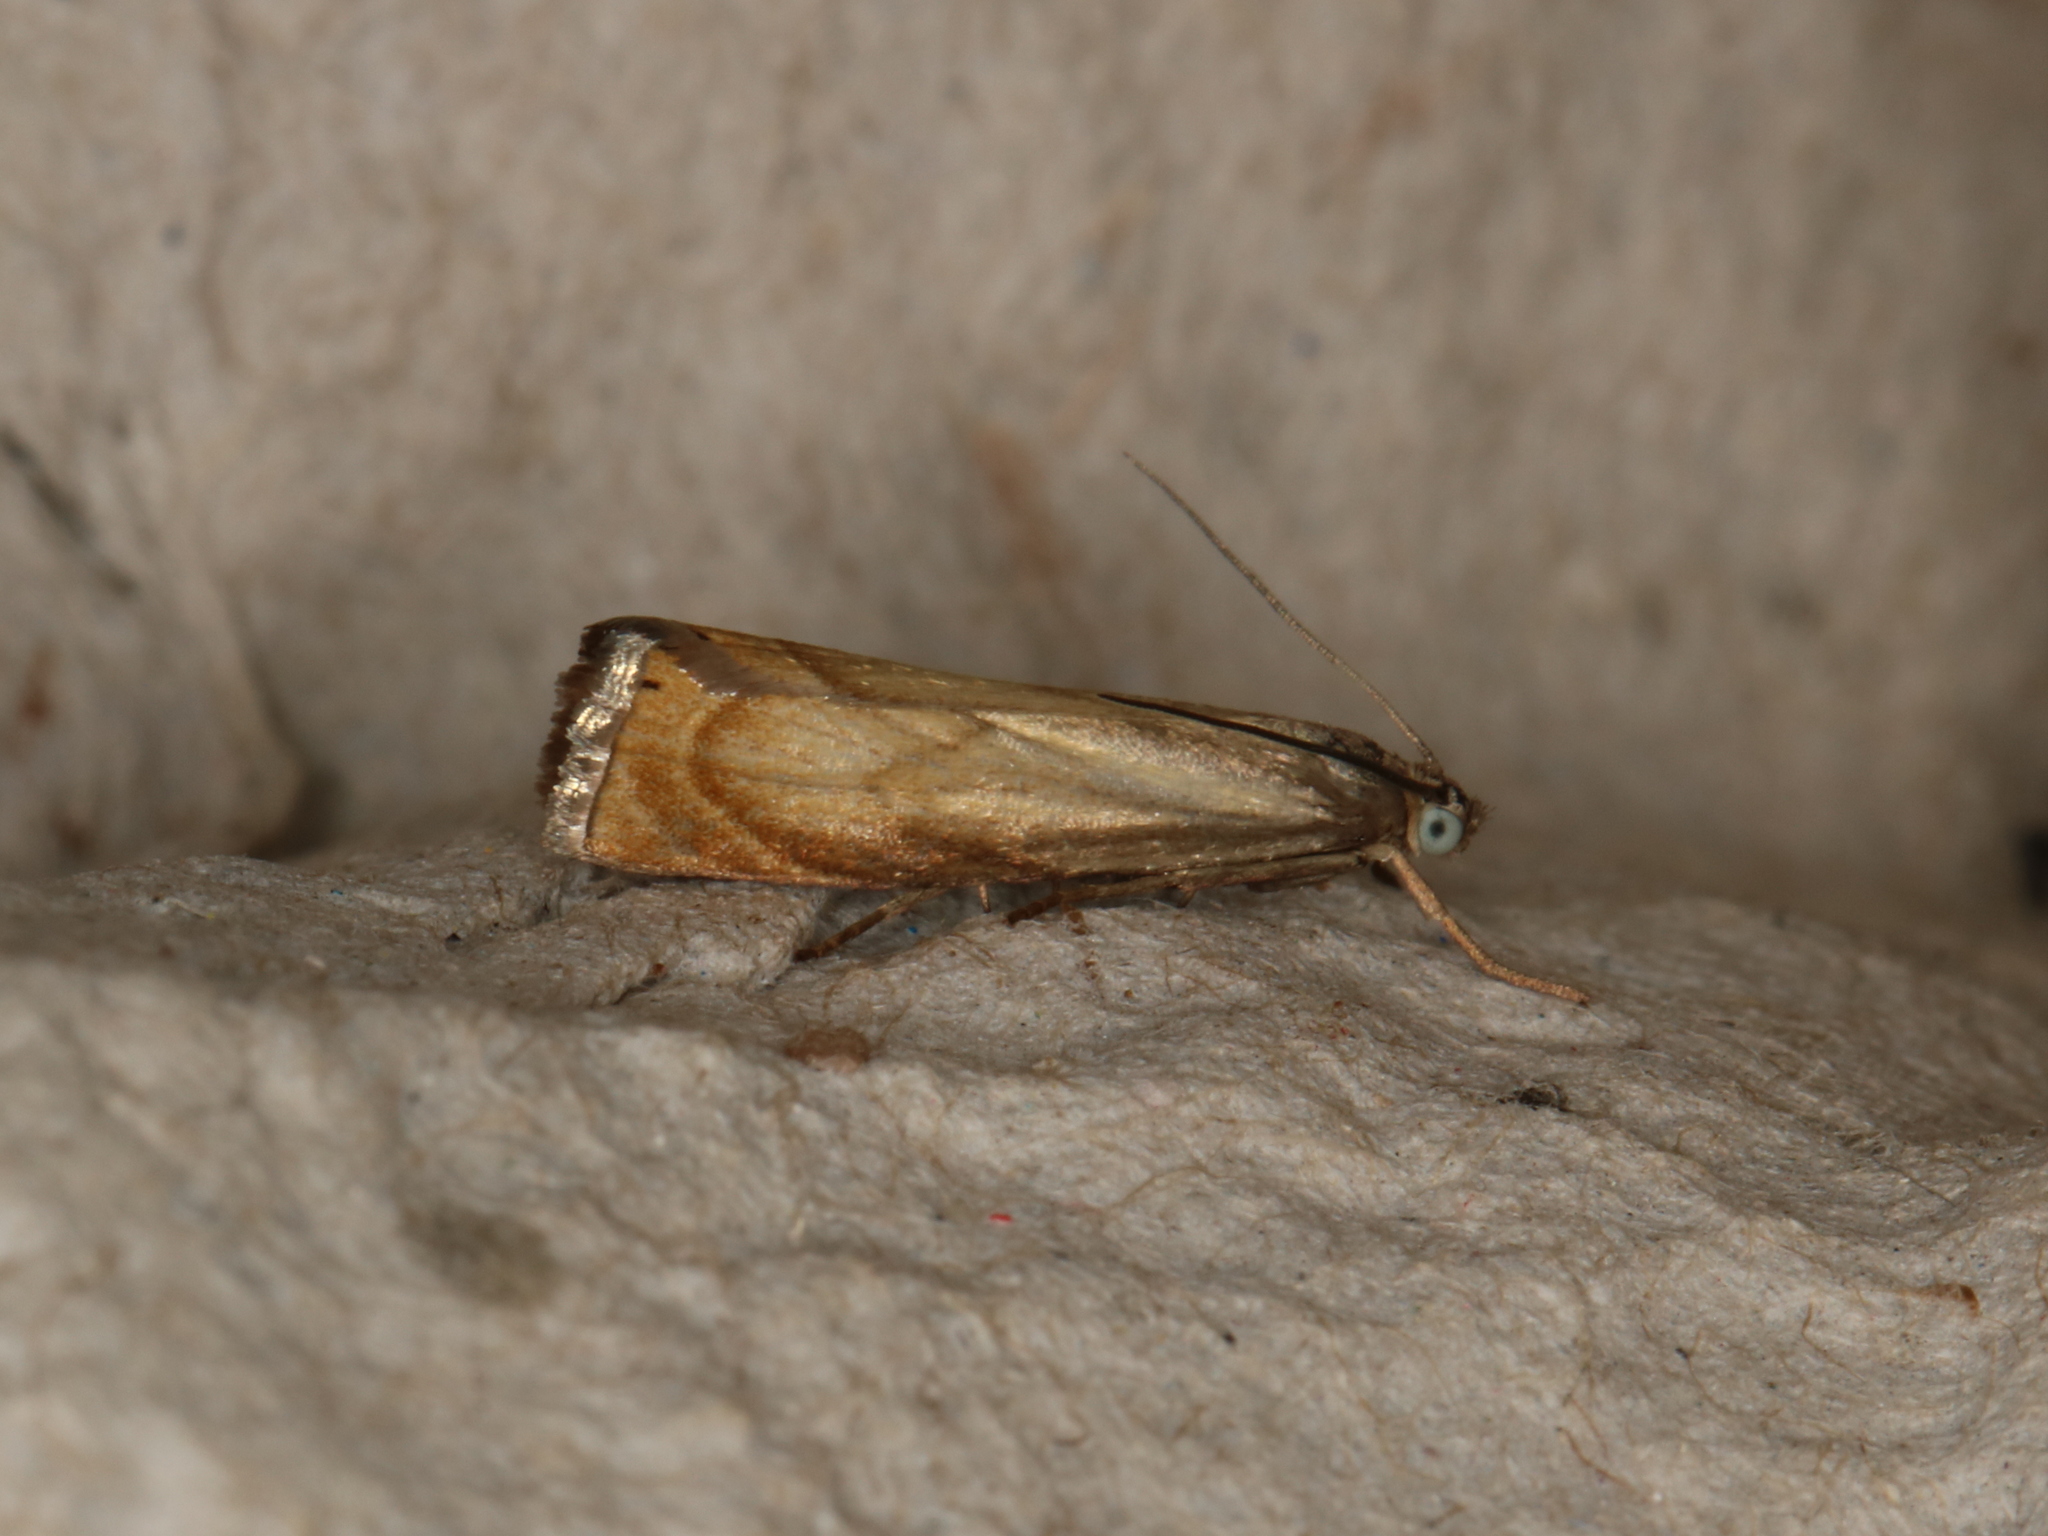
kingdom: Animalia
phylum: Arthropoda
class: Insecta
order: Lepidoptera
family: Crambidae
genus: Chrysoteuchia
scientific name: Chrysoteuchia culmella
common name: Garden grass-veneer
